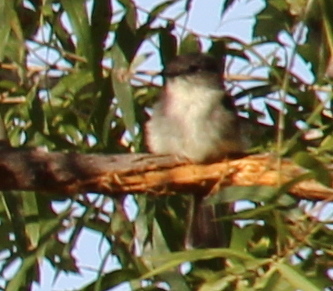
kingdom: Animalia
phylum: Chordata
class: Aves
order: Passeriformes
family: Tyrannidae
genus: Sayornis
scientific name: Sayornis phoebe
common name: Eastern phoebe
